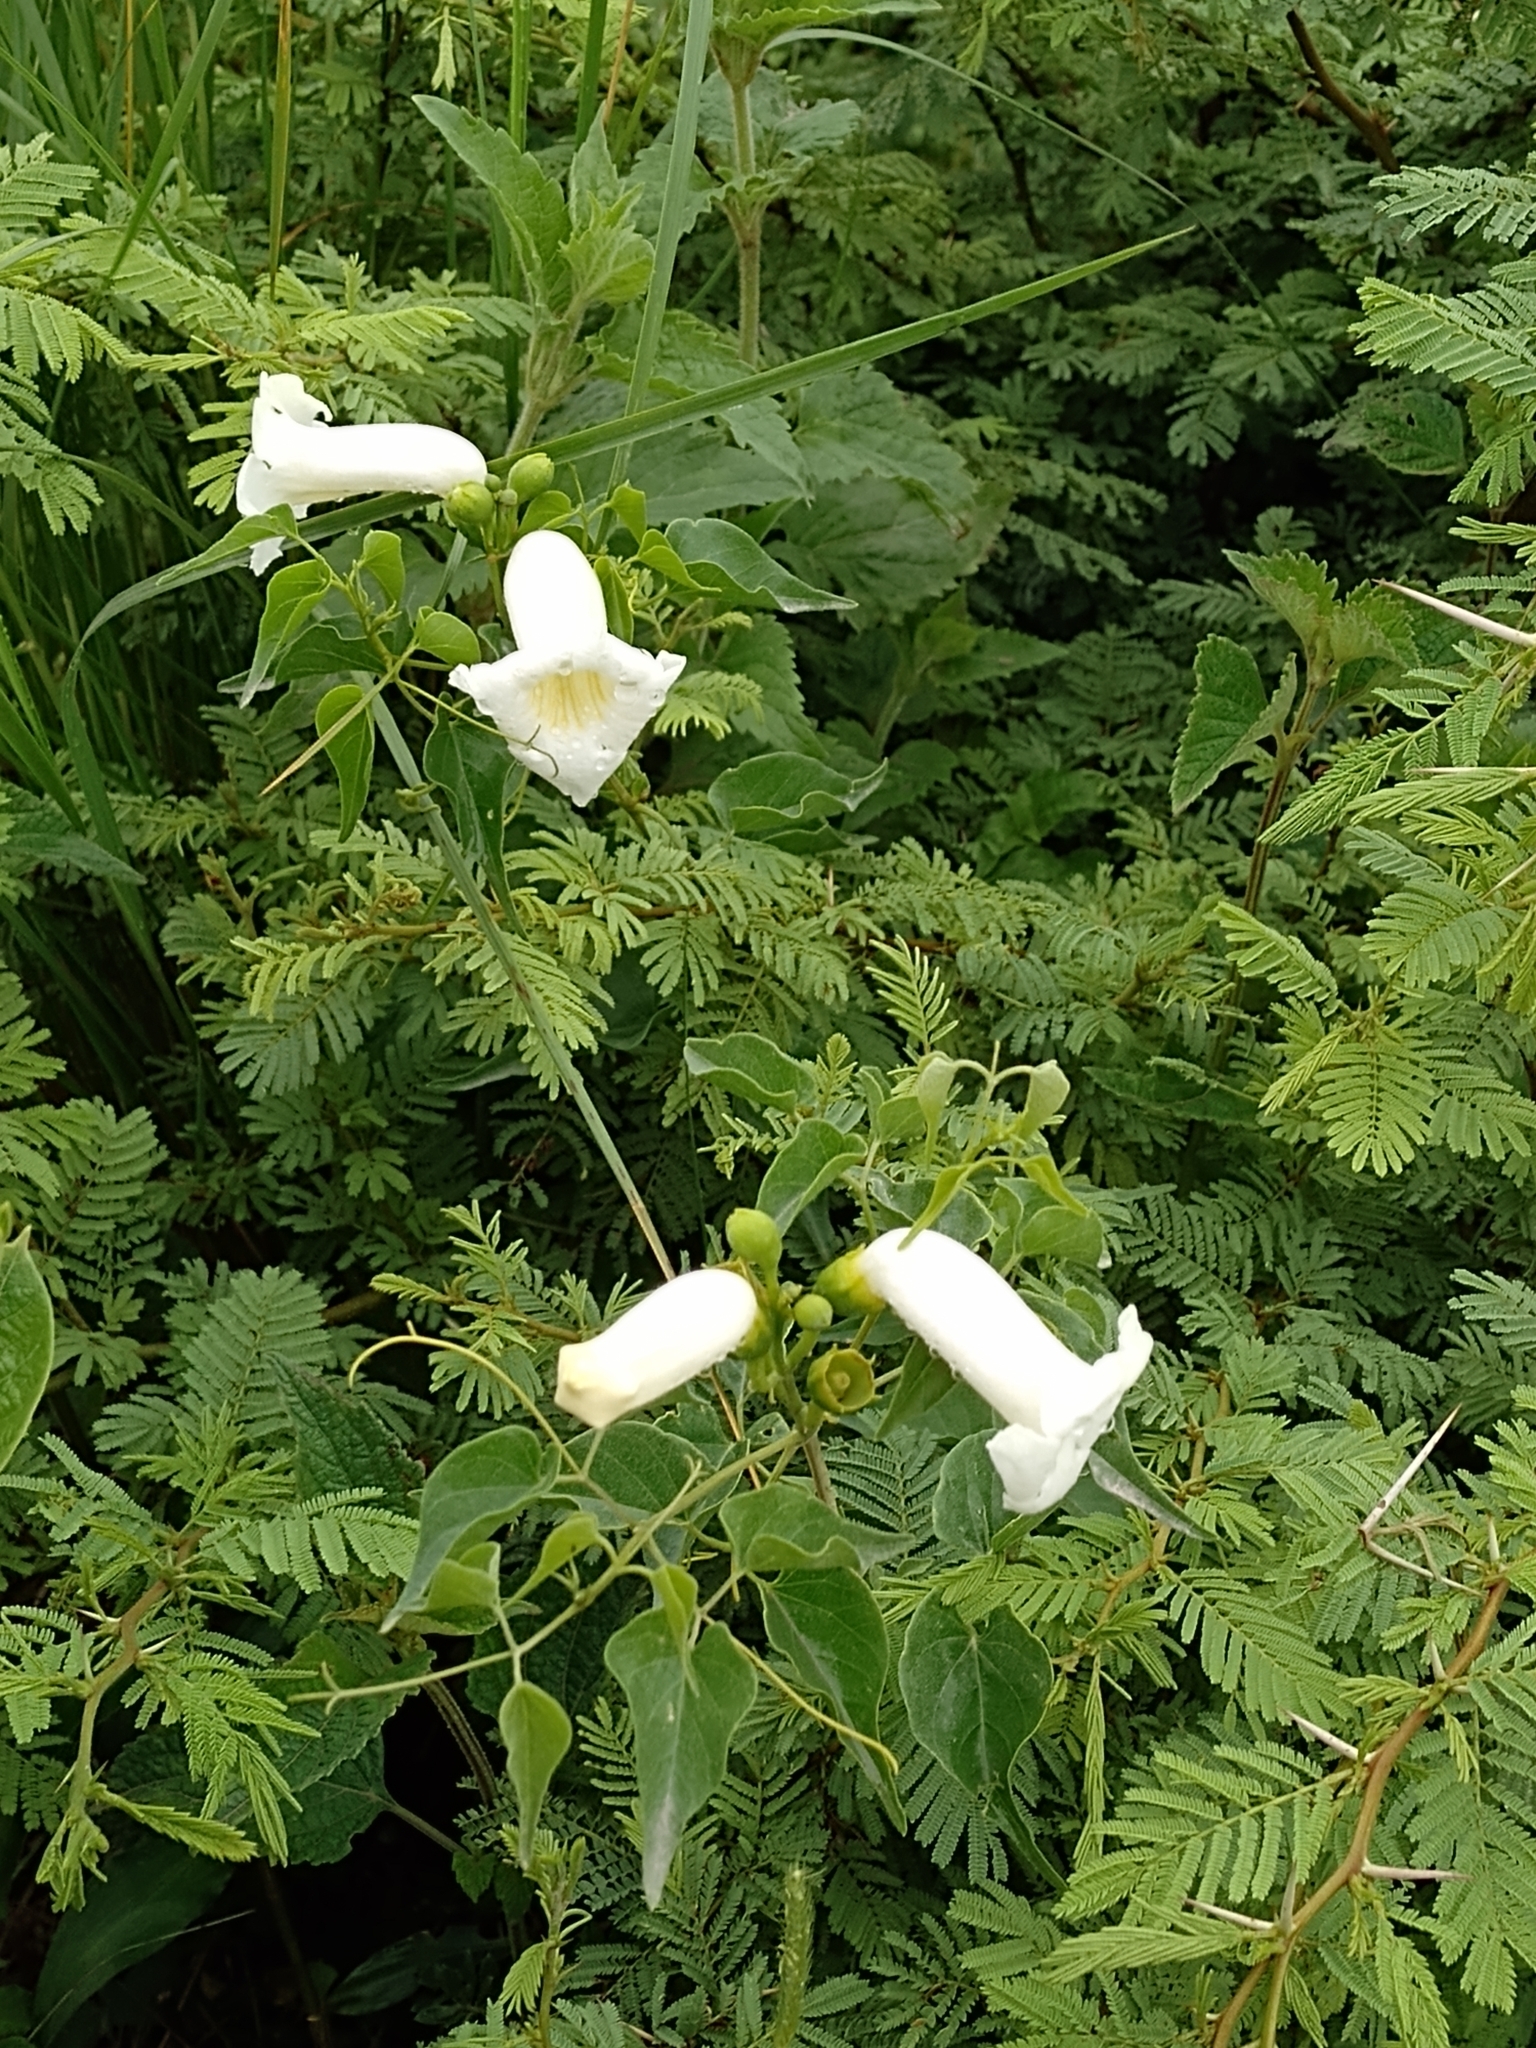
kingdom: Plantae
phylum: Tracheophyta
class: Magnoliopsida
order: Lamiales
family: Bignoniaceae
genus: Amphilophium
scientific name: Amphilophium carolinae
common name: Monkey's-comb
